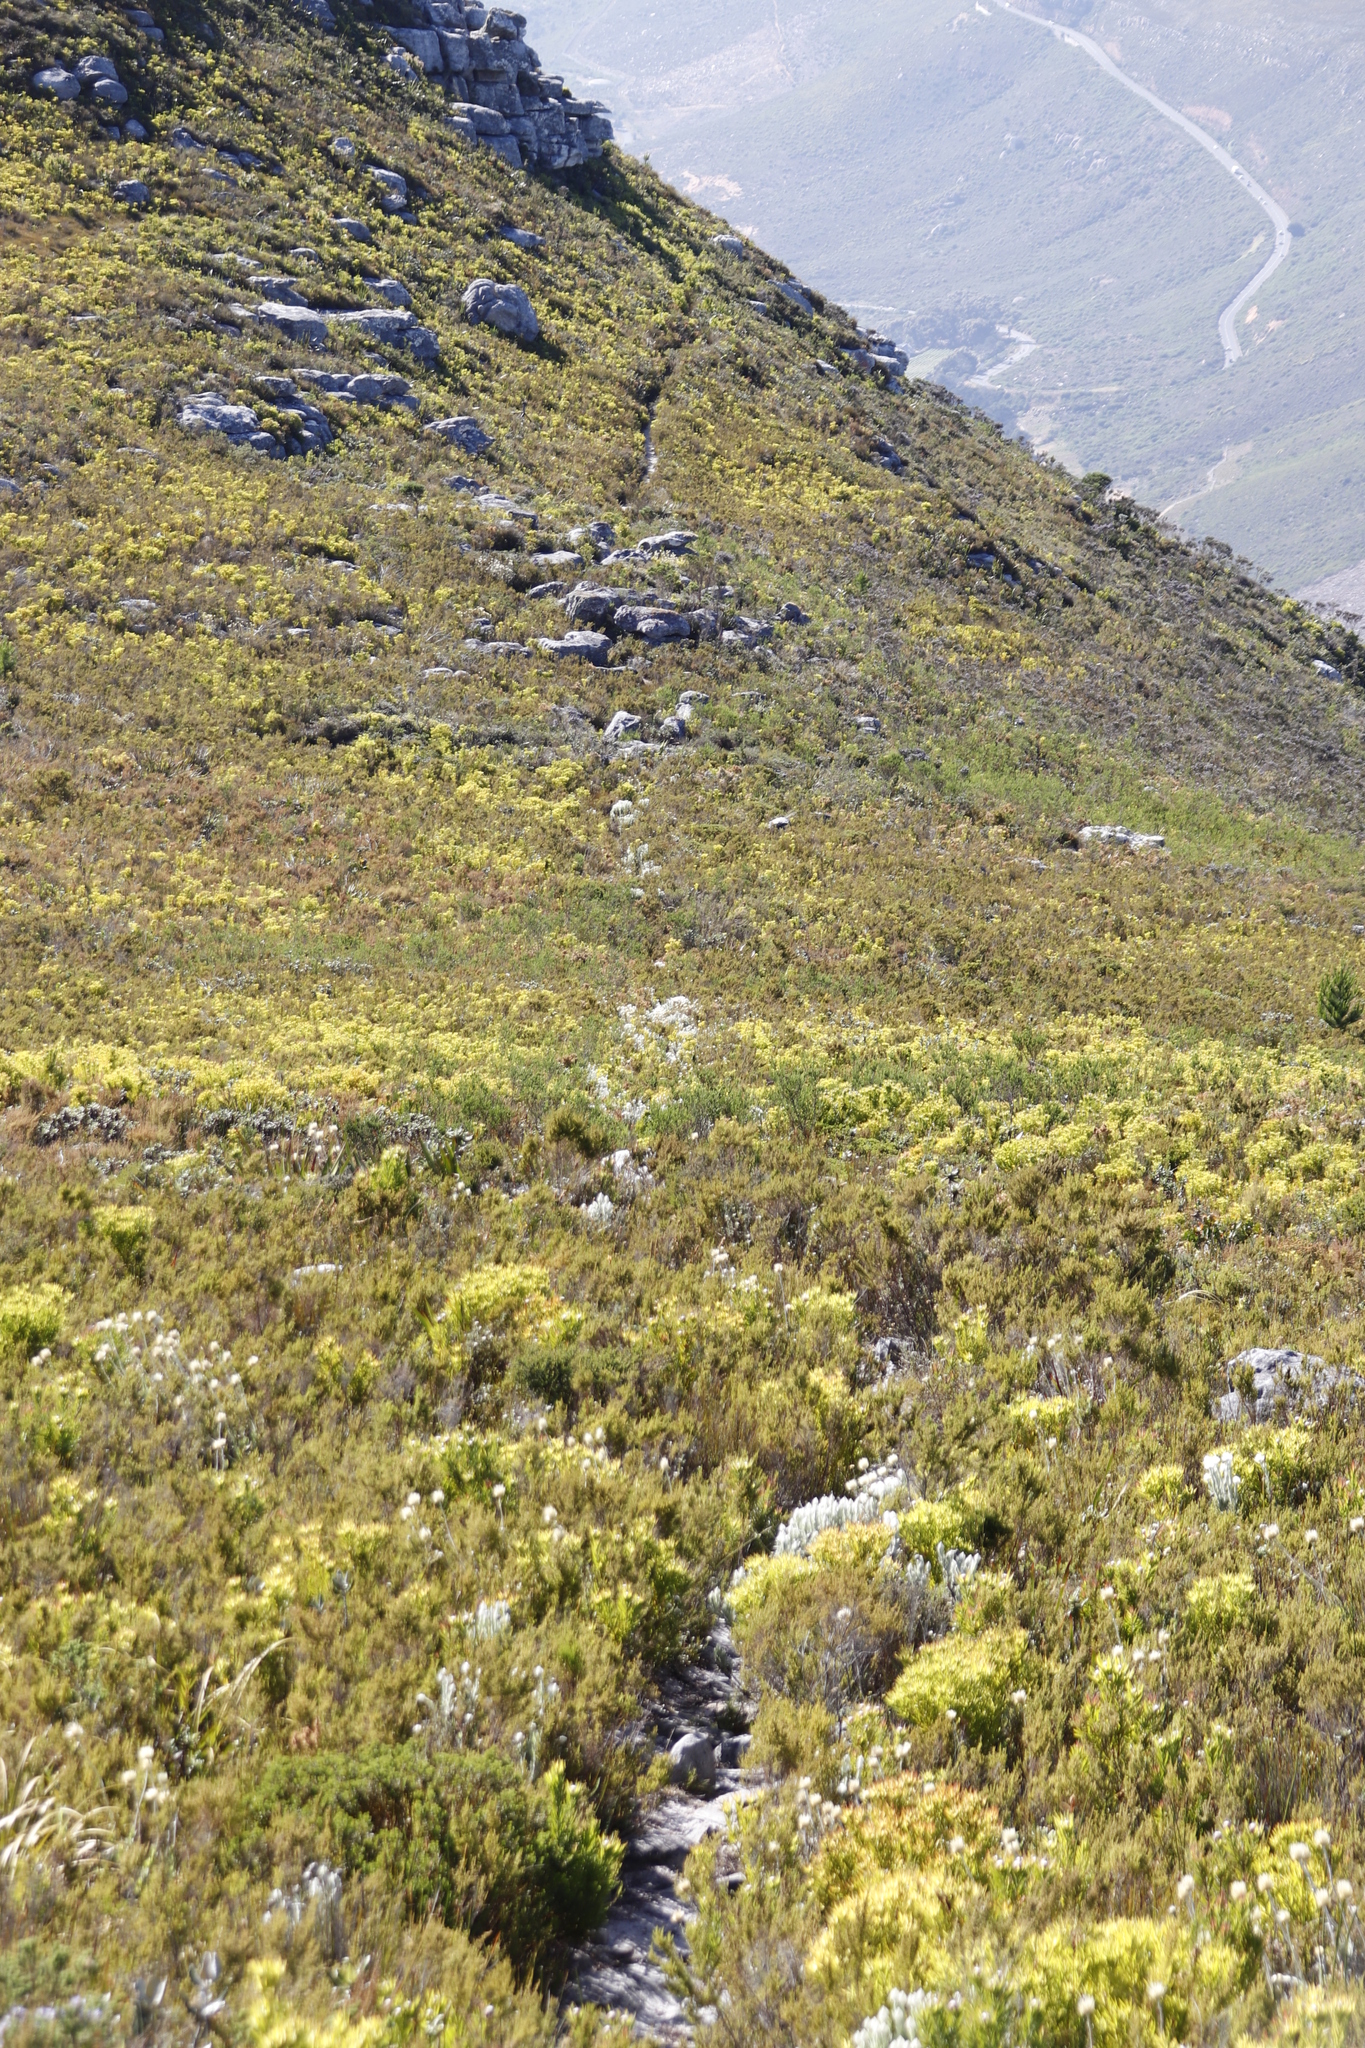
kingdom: Plantae
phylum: Tracheophyta
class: Magnoliopsida
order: Asterales
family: Asteraceae
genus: Syncarpha
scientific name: Syncarpha vestita
